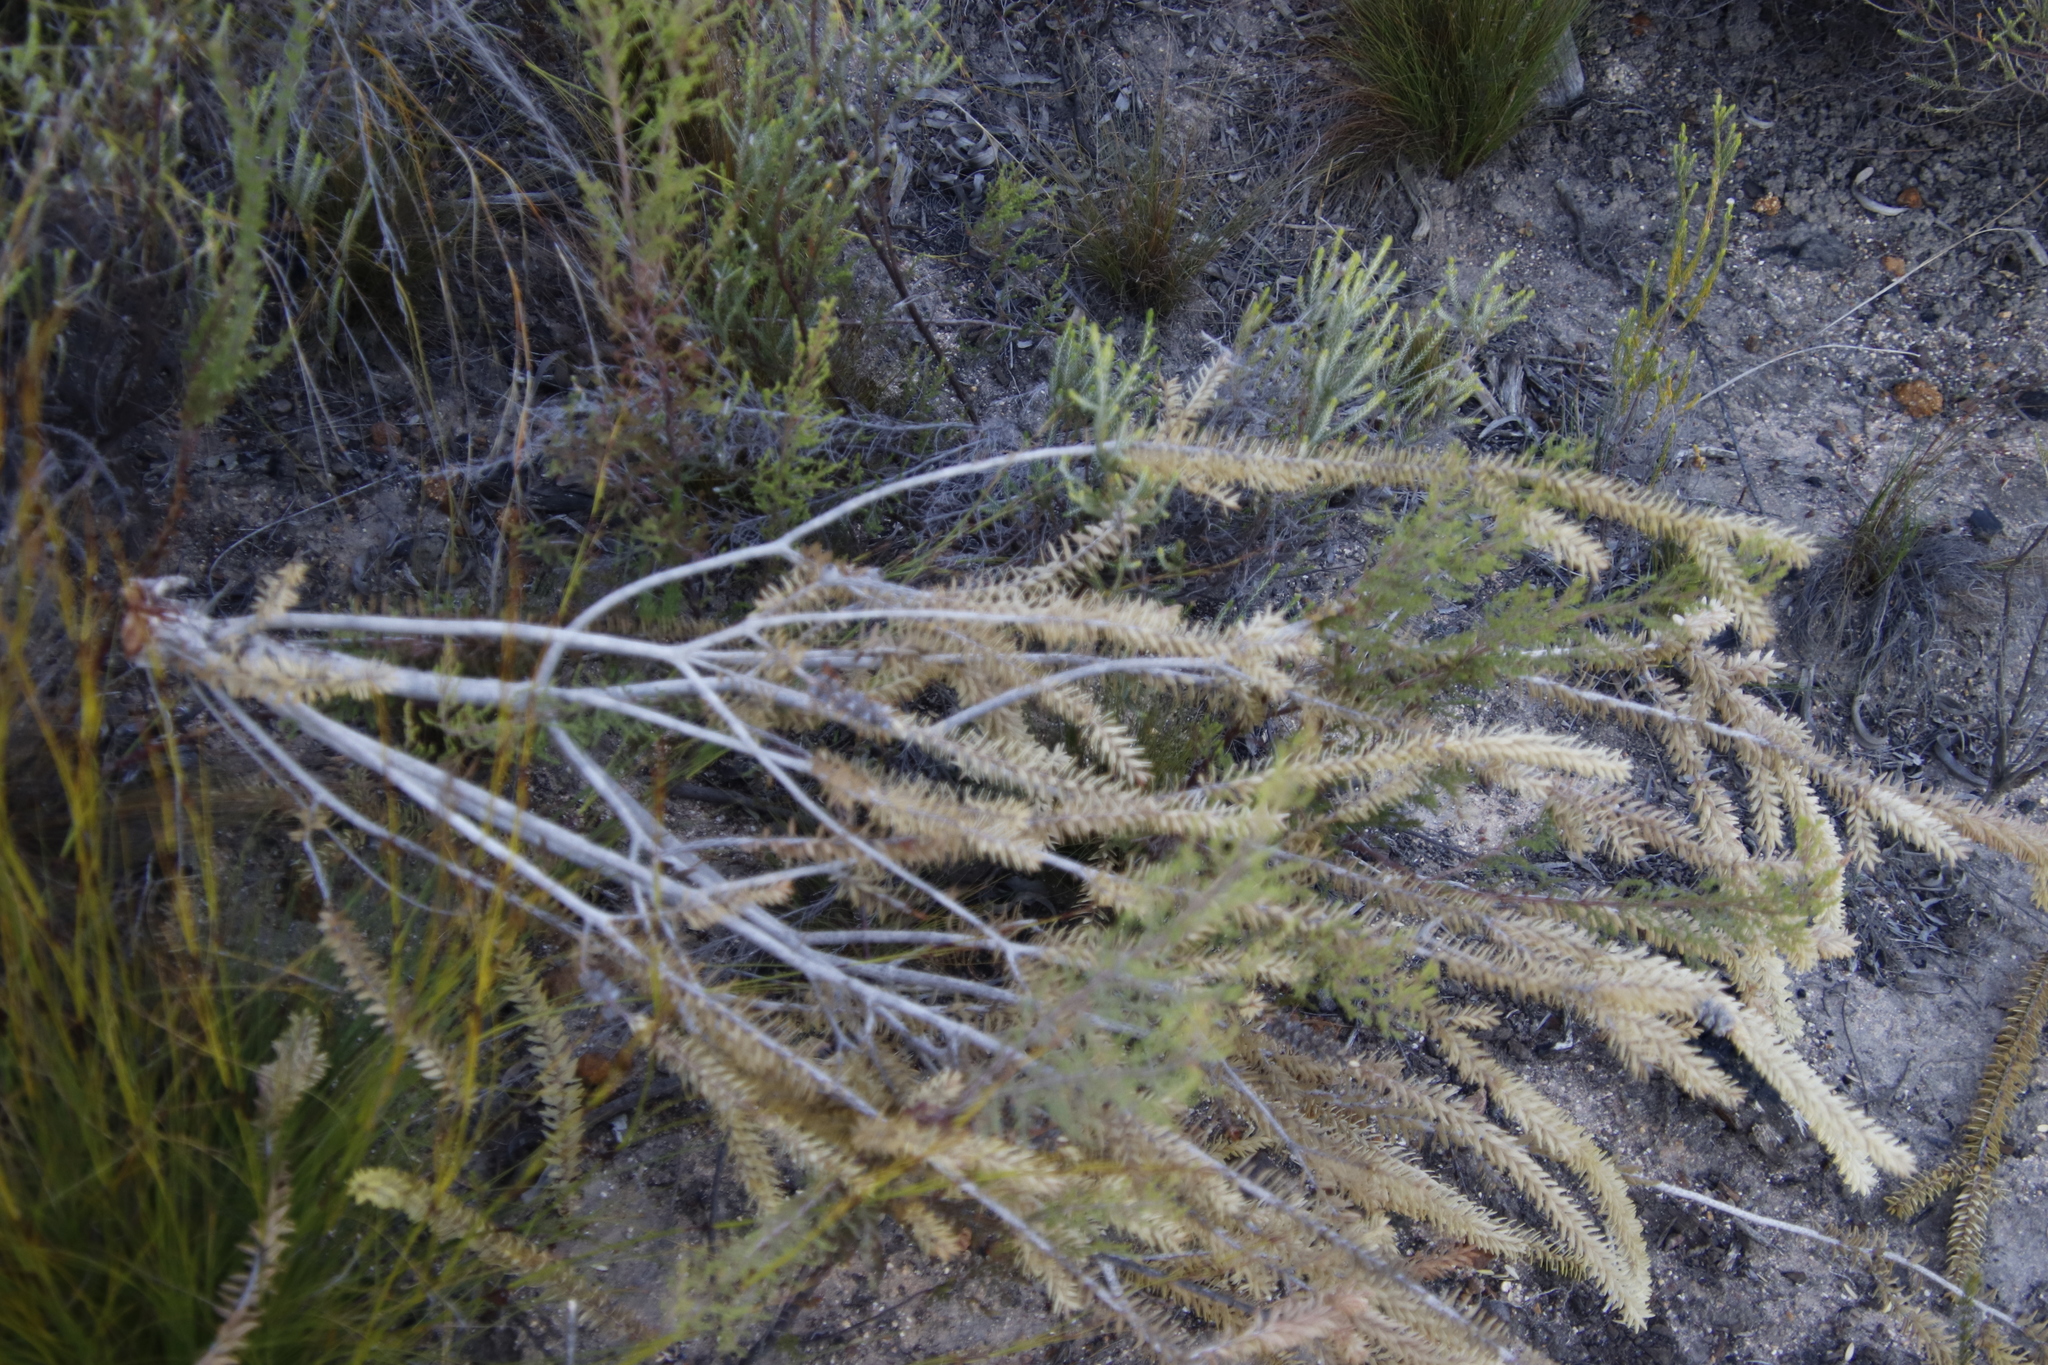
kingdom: Plantae
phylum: Tracheophyta
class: Magnoliopsida
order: Myrtales
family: Myrtaceae
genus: Melaleuca
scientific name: Melaleuca diosmifolia
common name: Green honey myrtle
